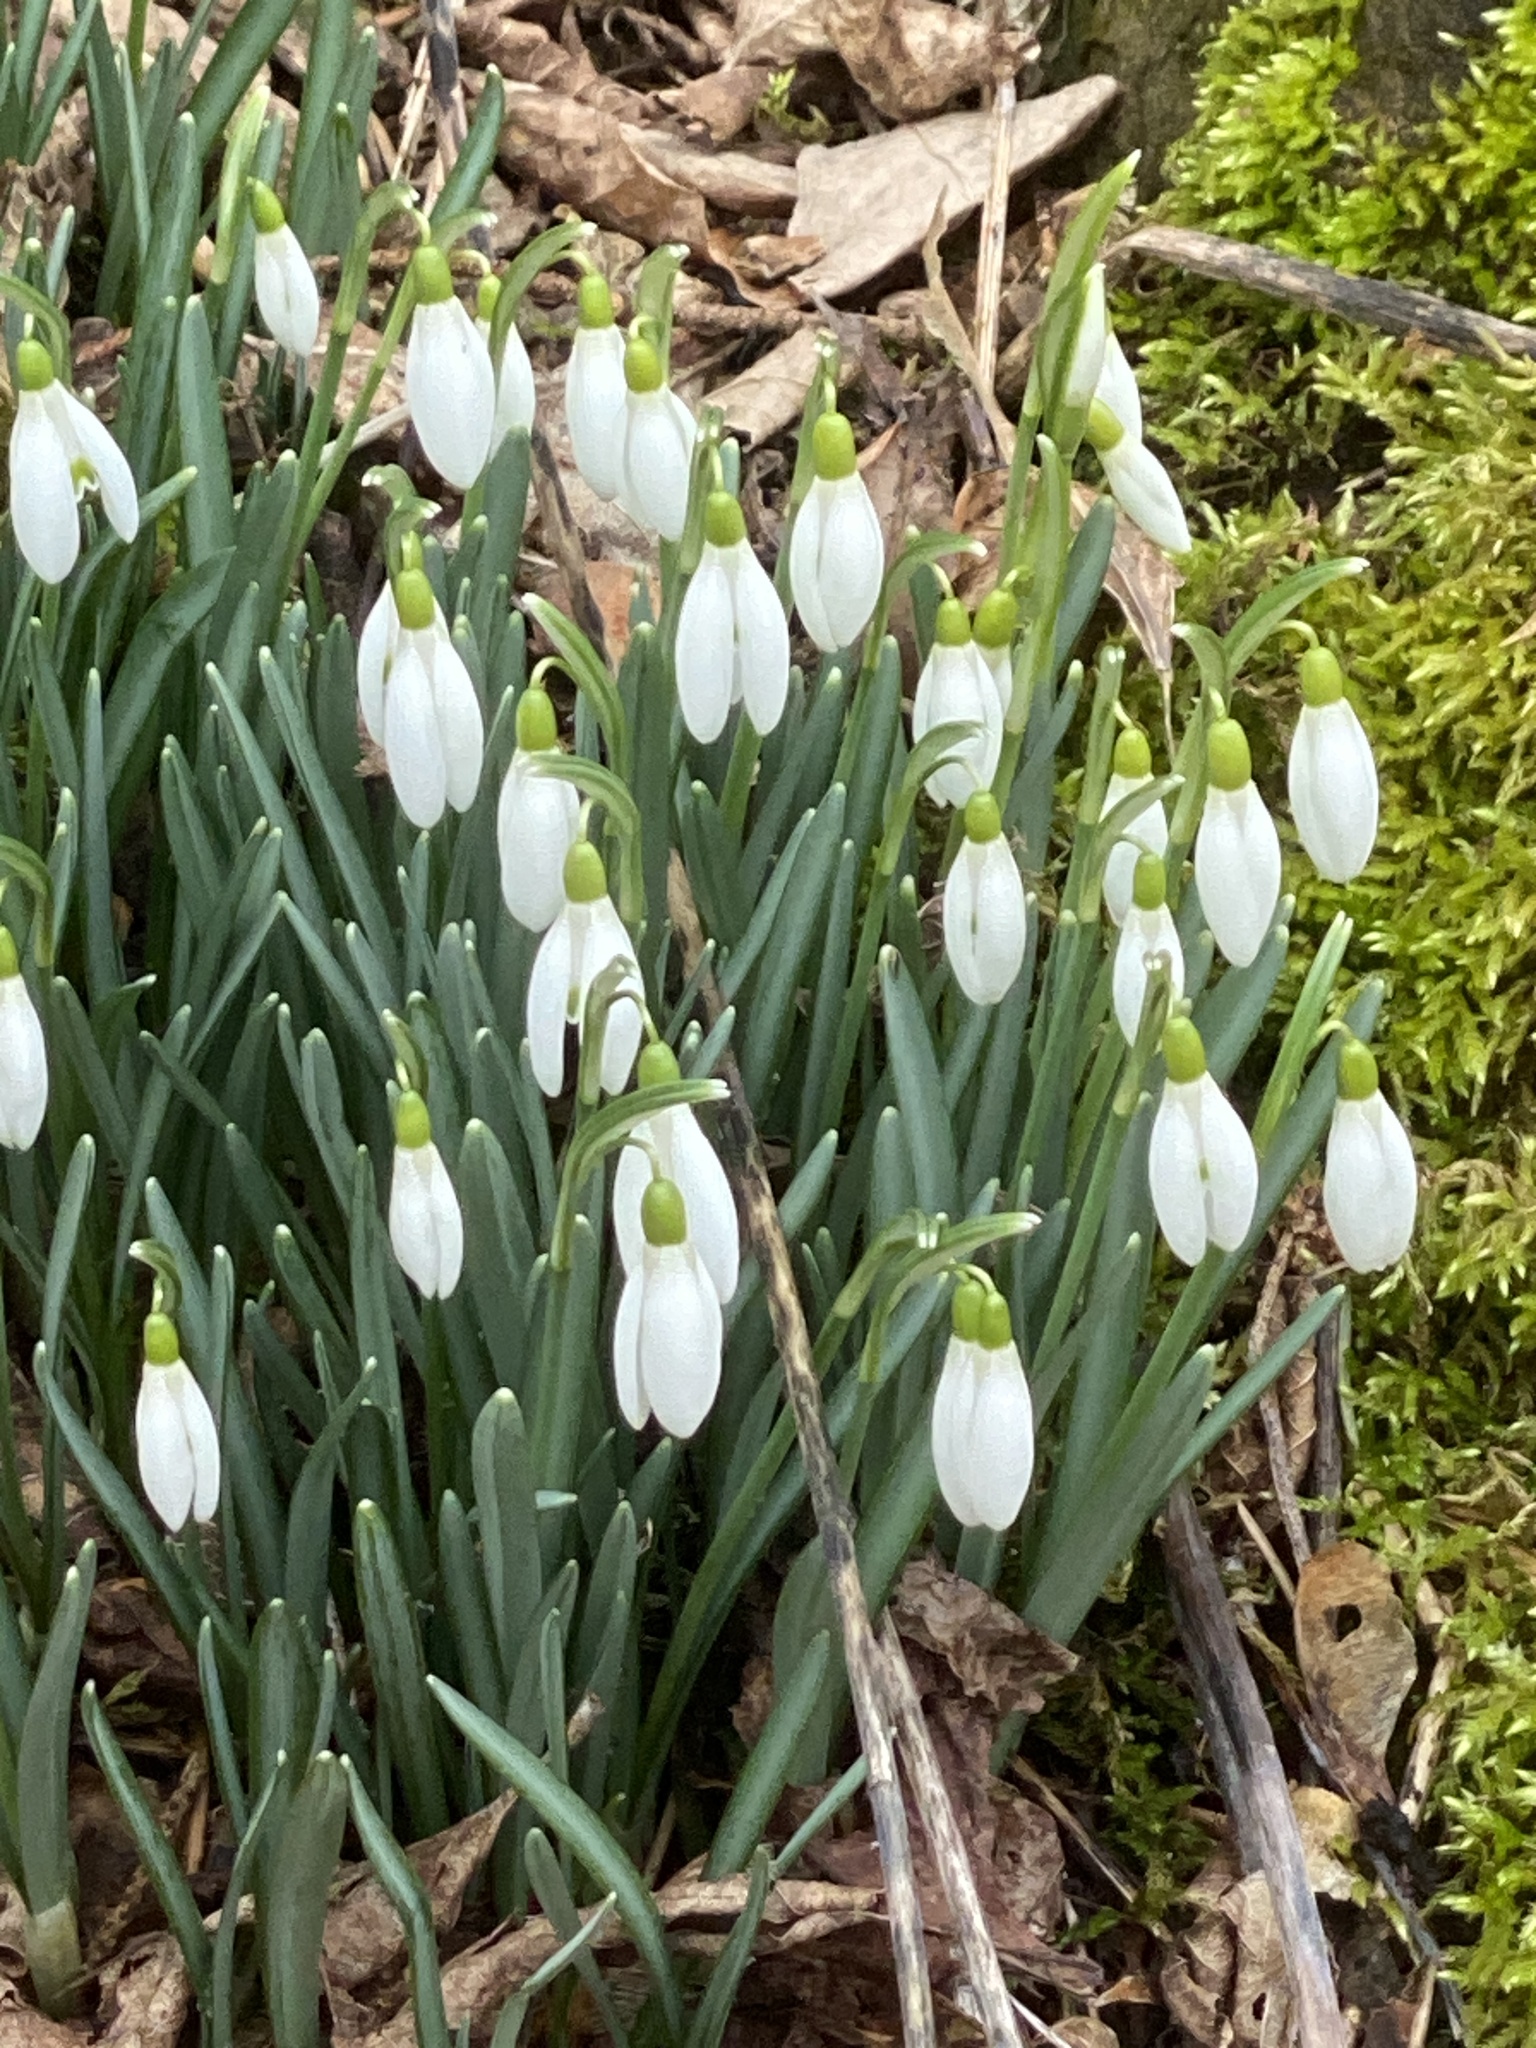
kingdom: Plantae
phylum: Tracheophyta
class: Liliopsida
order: Asparagales
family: Amaryllidaceae
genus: Galanthus
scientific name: Galanthus nivalis
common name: Snowdrop
